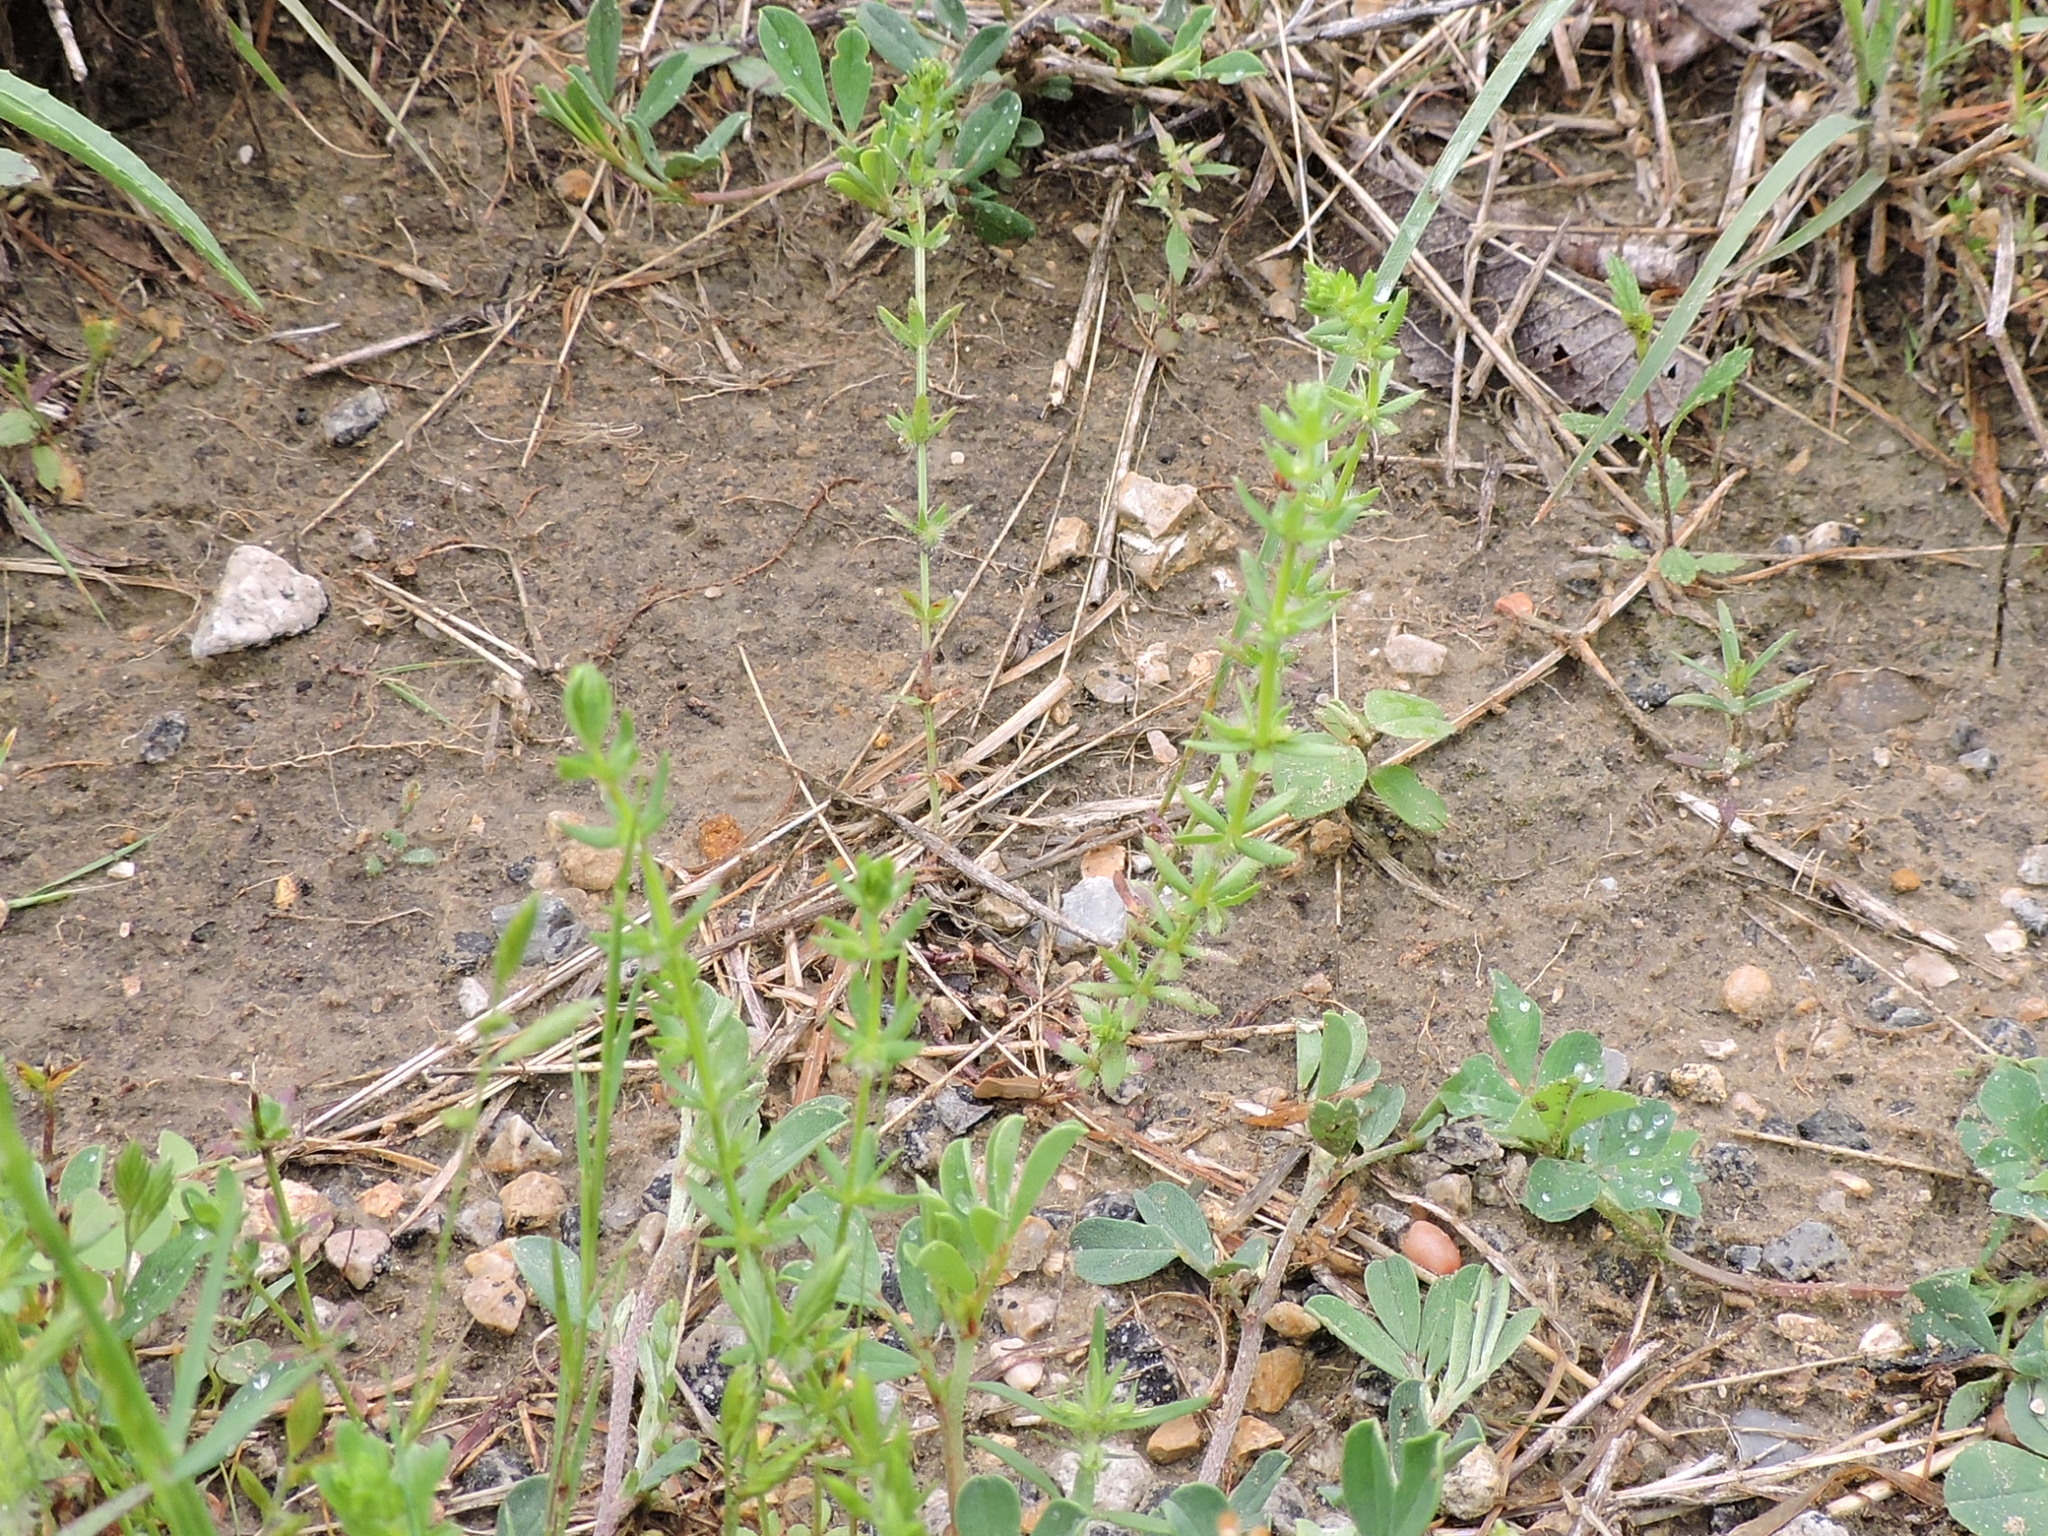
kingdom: Plantae
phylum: Tracheophyta
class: Magnoliopsida
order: Gentianales
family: Rubiaceae
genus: Galium
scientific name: Galium virgatum
